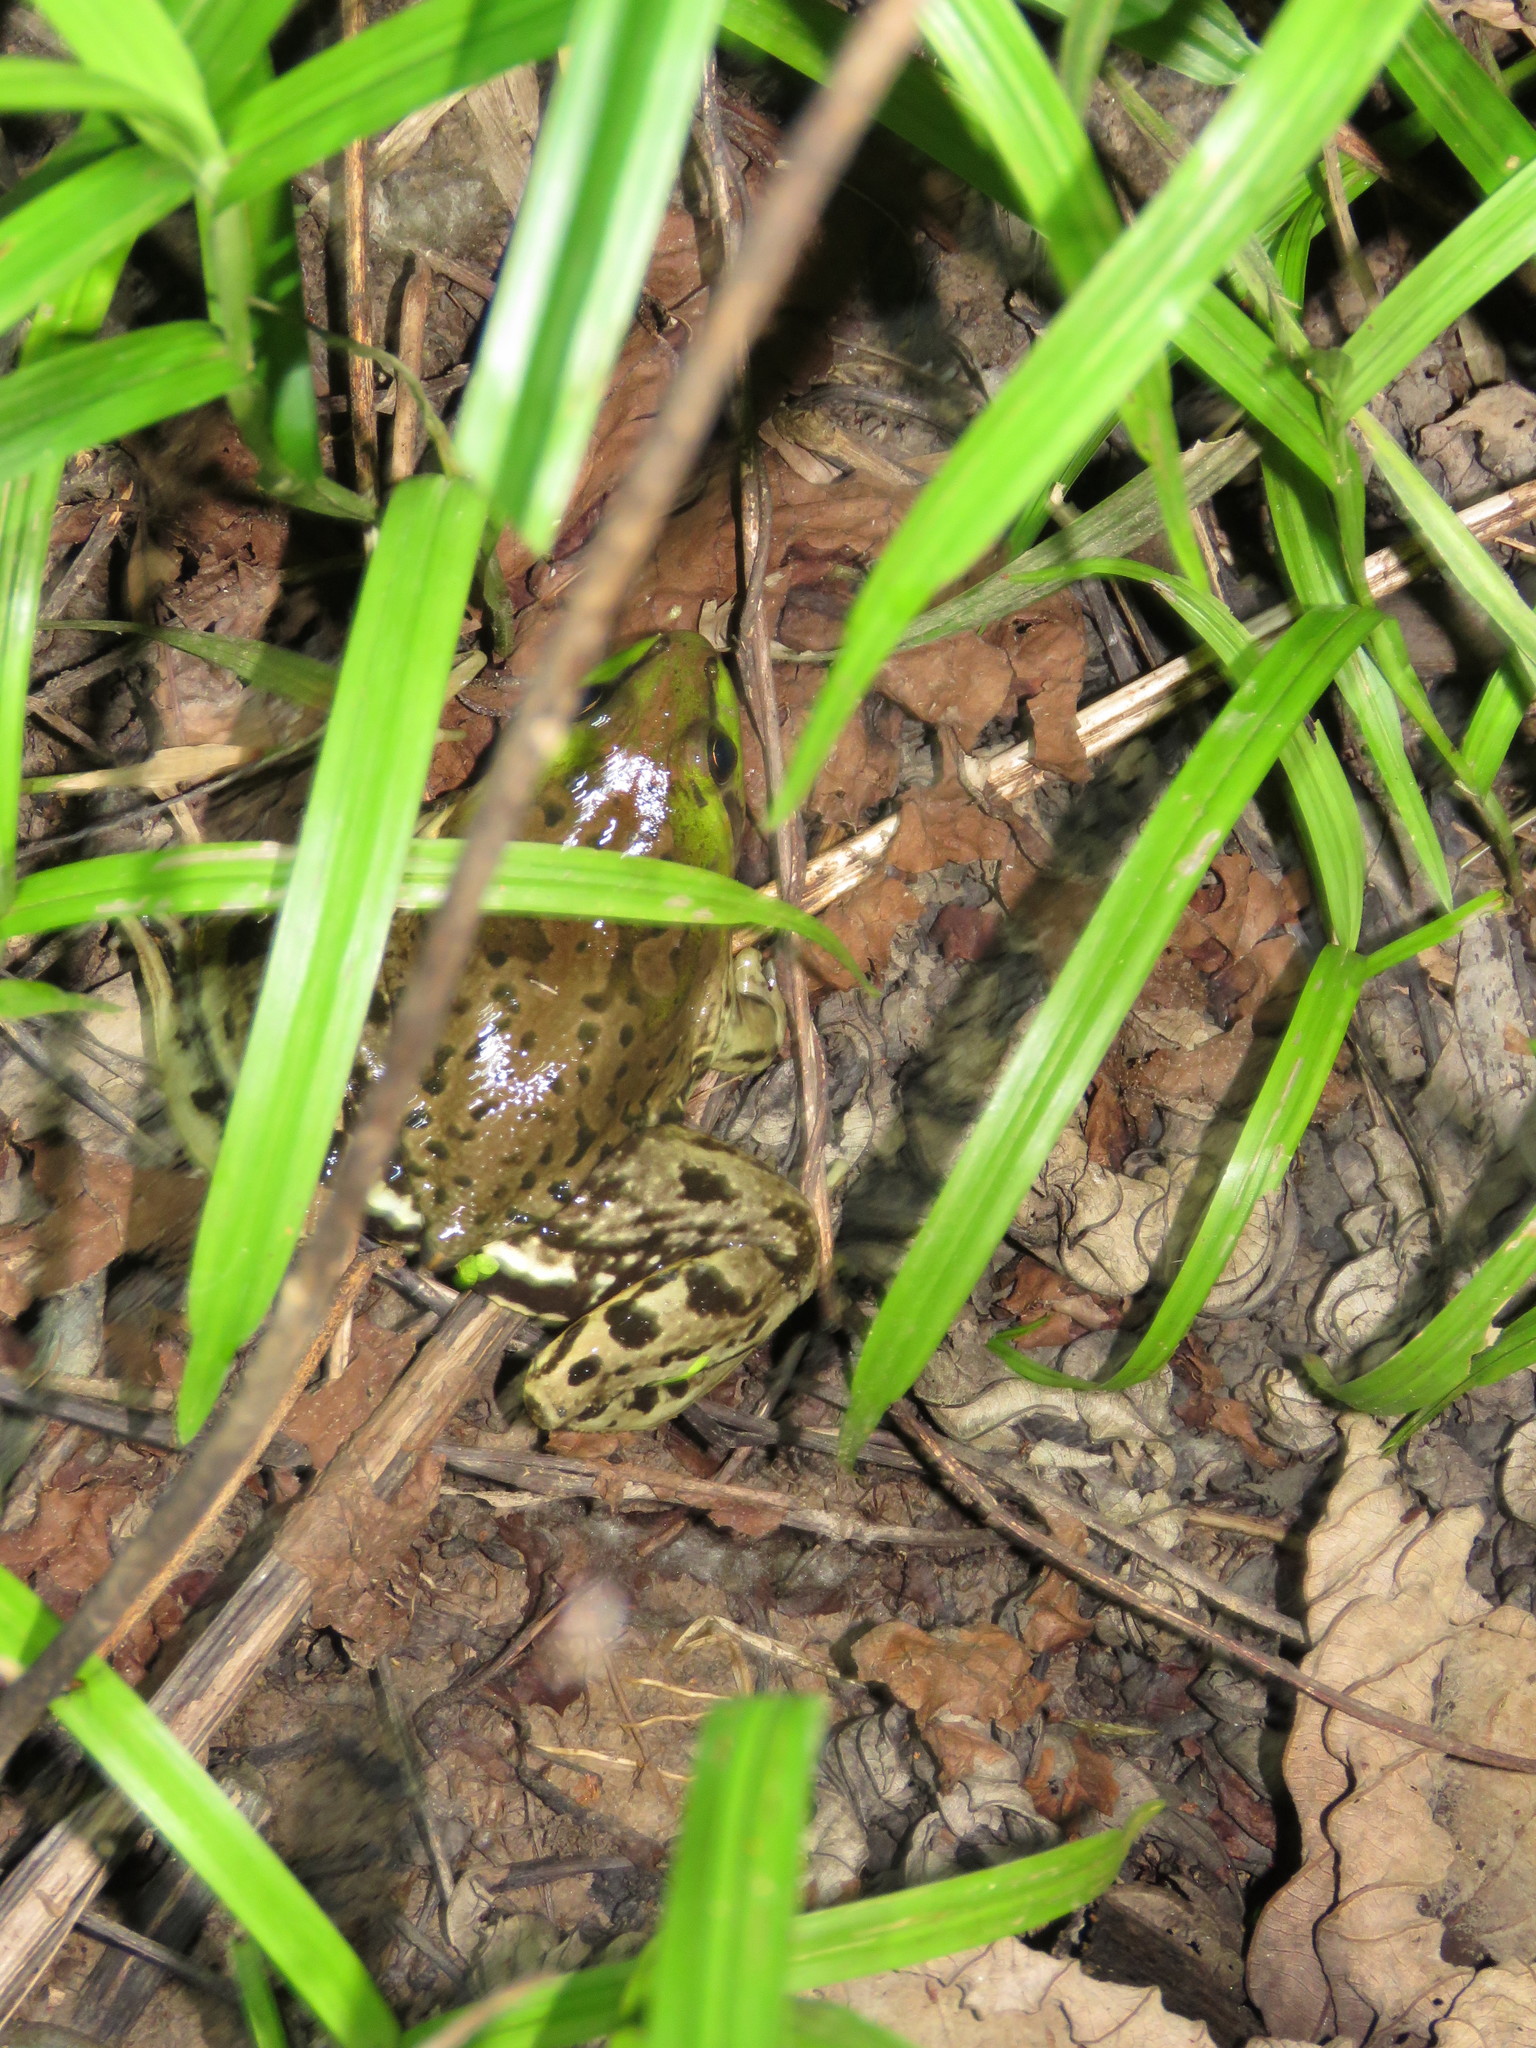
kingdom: Animalia
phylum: Chordata
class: Amphibia
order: Anura
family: Hylidae
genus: Pseudis
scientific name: Pseudis paradoxa
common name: Swimming frog
